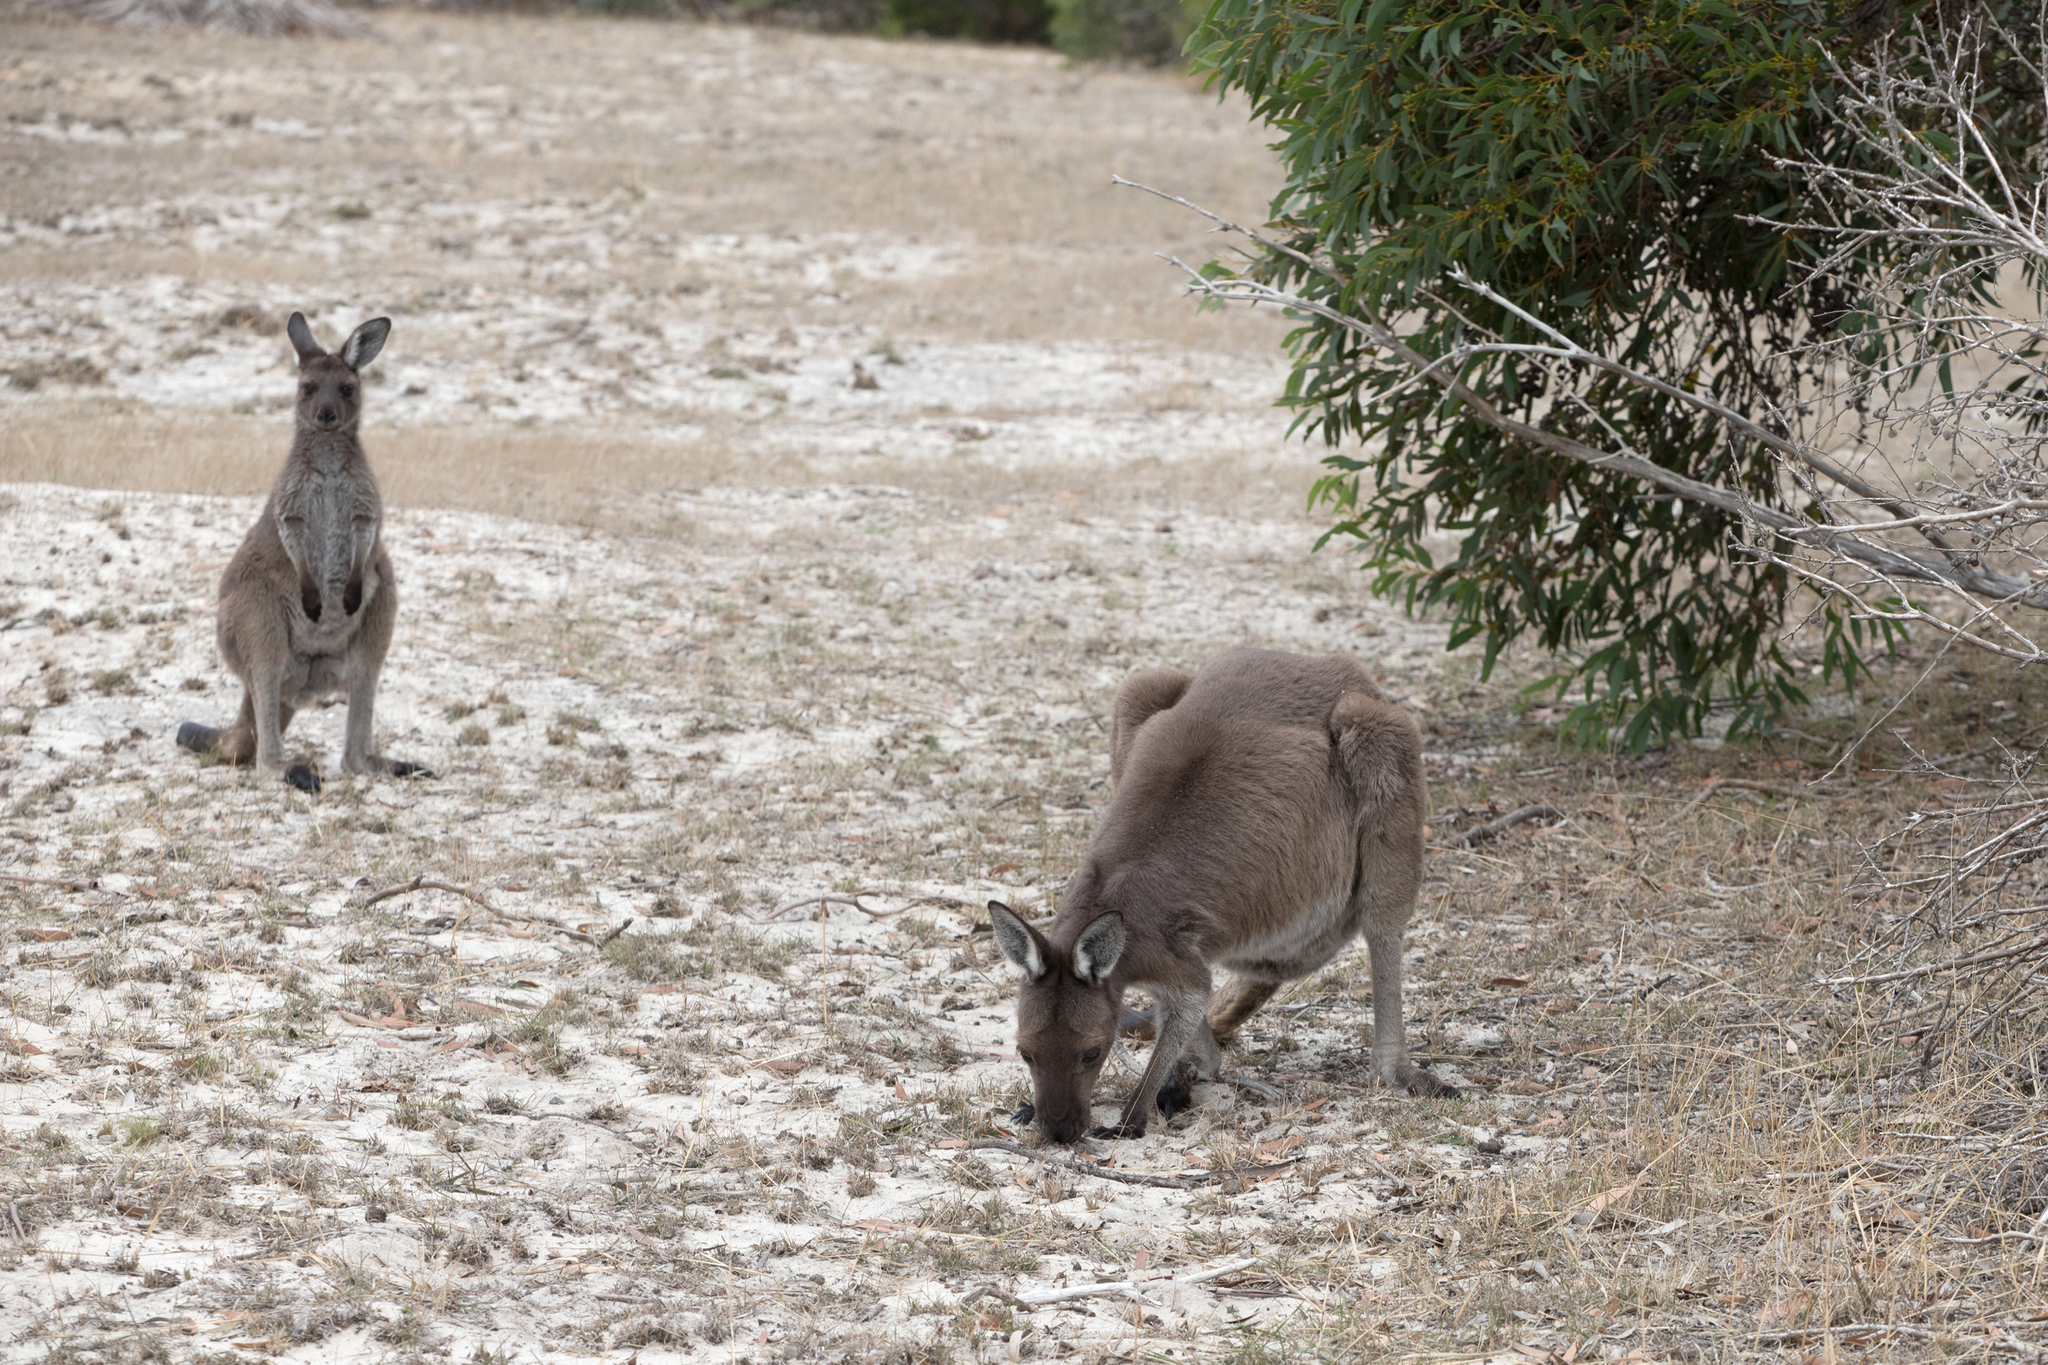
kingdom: Animalia
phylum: Chordata
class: Mammalia
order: Diprotodontia
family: Macropodidae
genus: Macropus
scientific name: Macropus fuliginosus
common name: Western grey kangaroo
